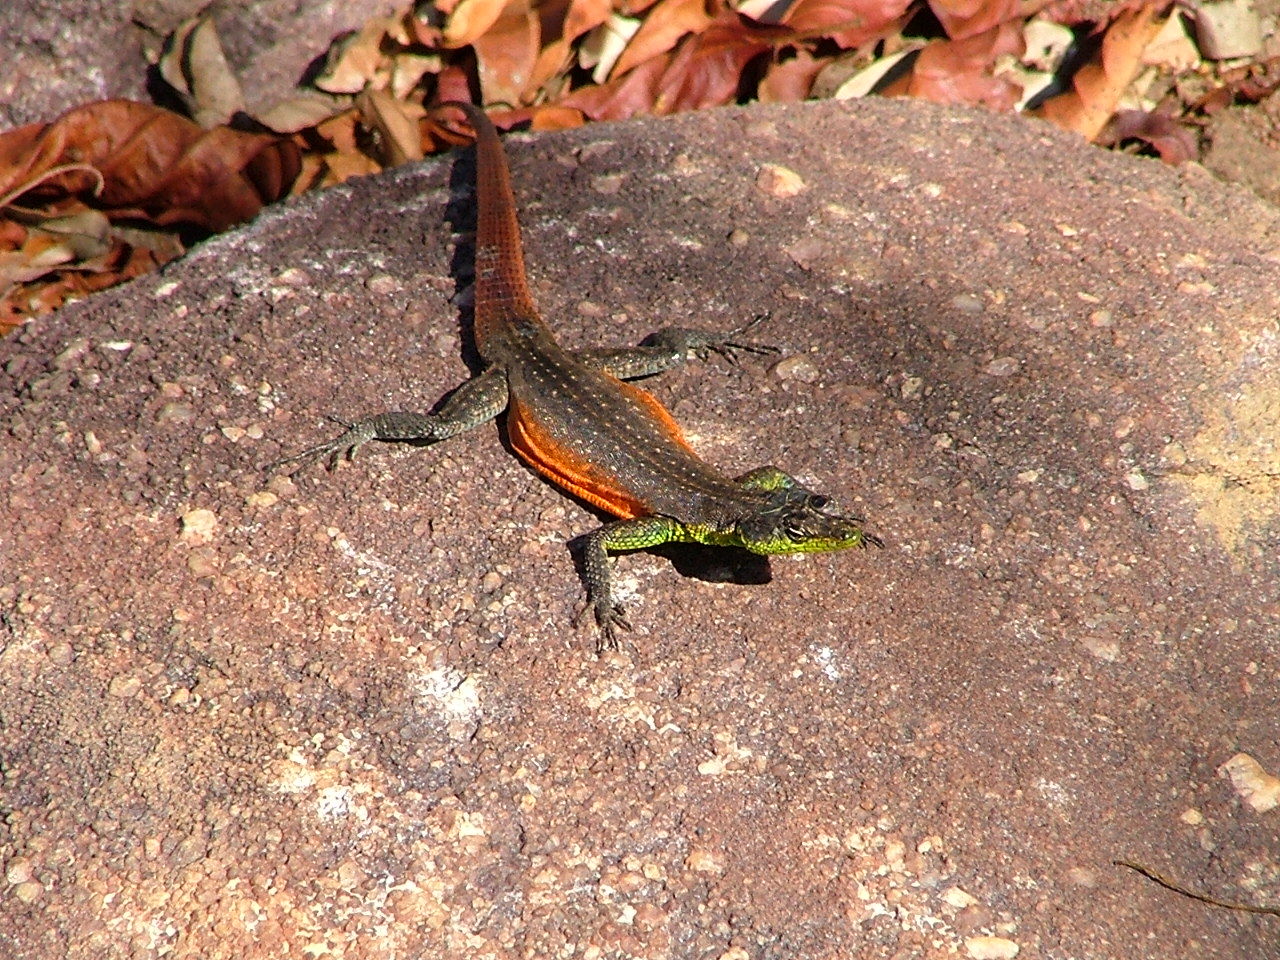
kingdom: Animalia
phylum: Chordata
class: Squamata
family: Cordylidae
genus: Platysaurus
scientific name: Platysaurus minor
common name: Waterberg flat lizard
